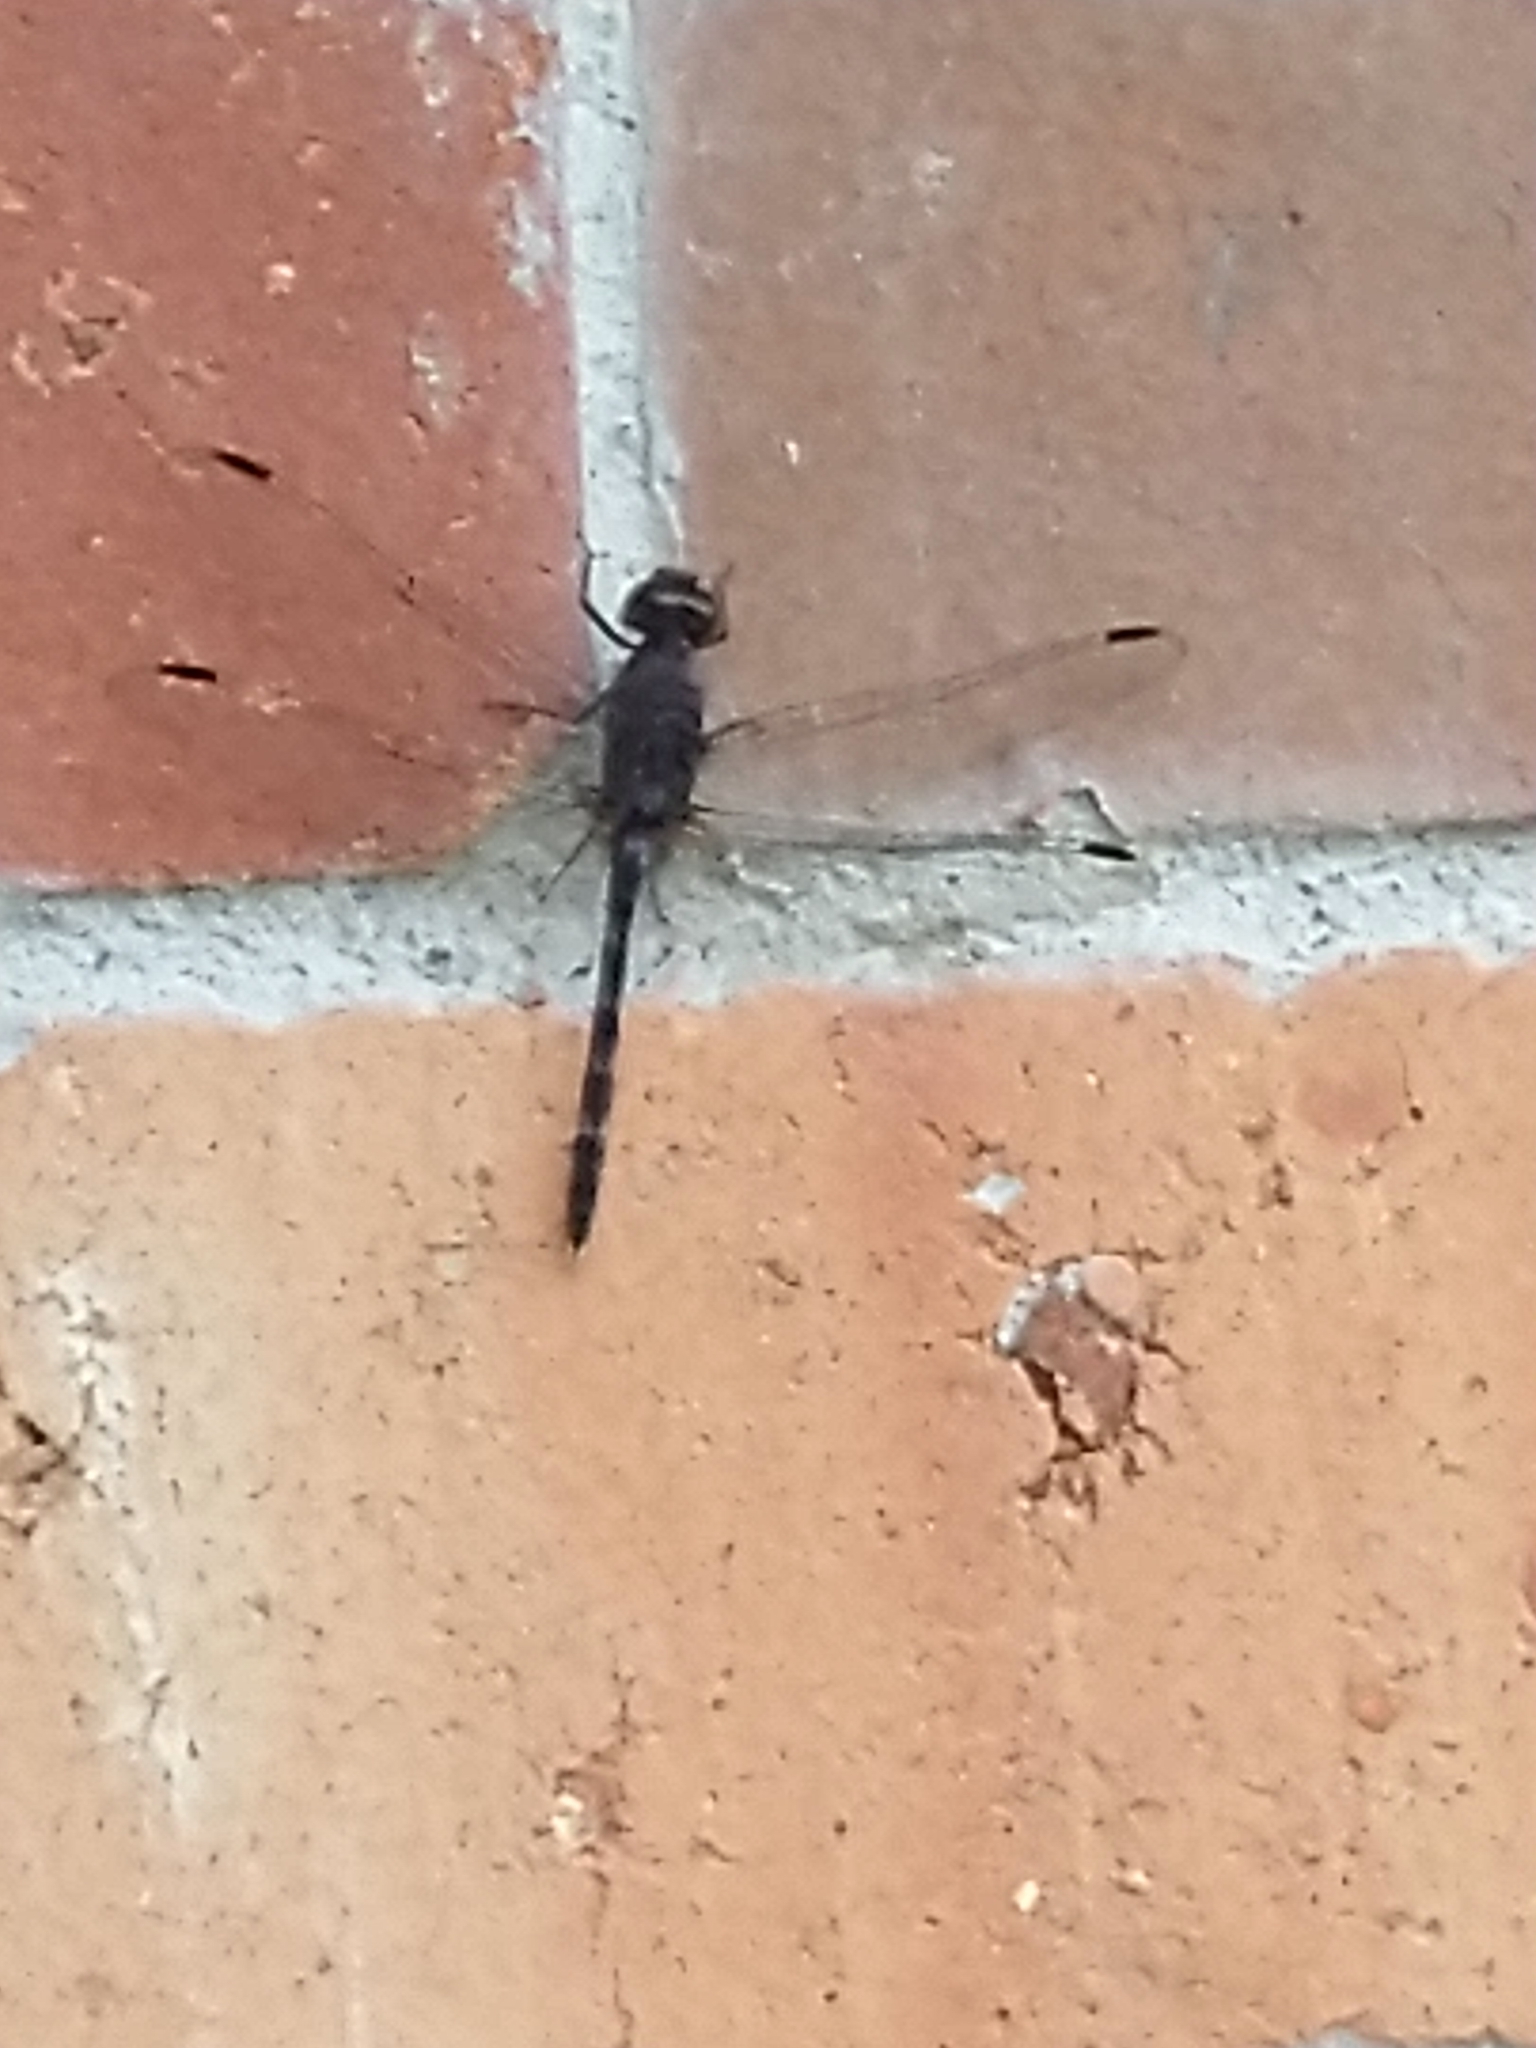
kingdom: Animalia
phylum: Arthropoda
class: Insecta
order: Odonata
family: Libellulidae
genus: Bradinopyga
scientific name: Bradinopyga konkanensis
